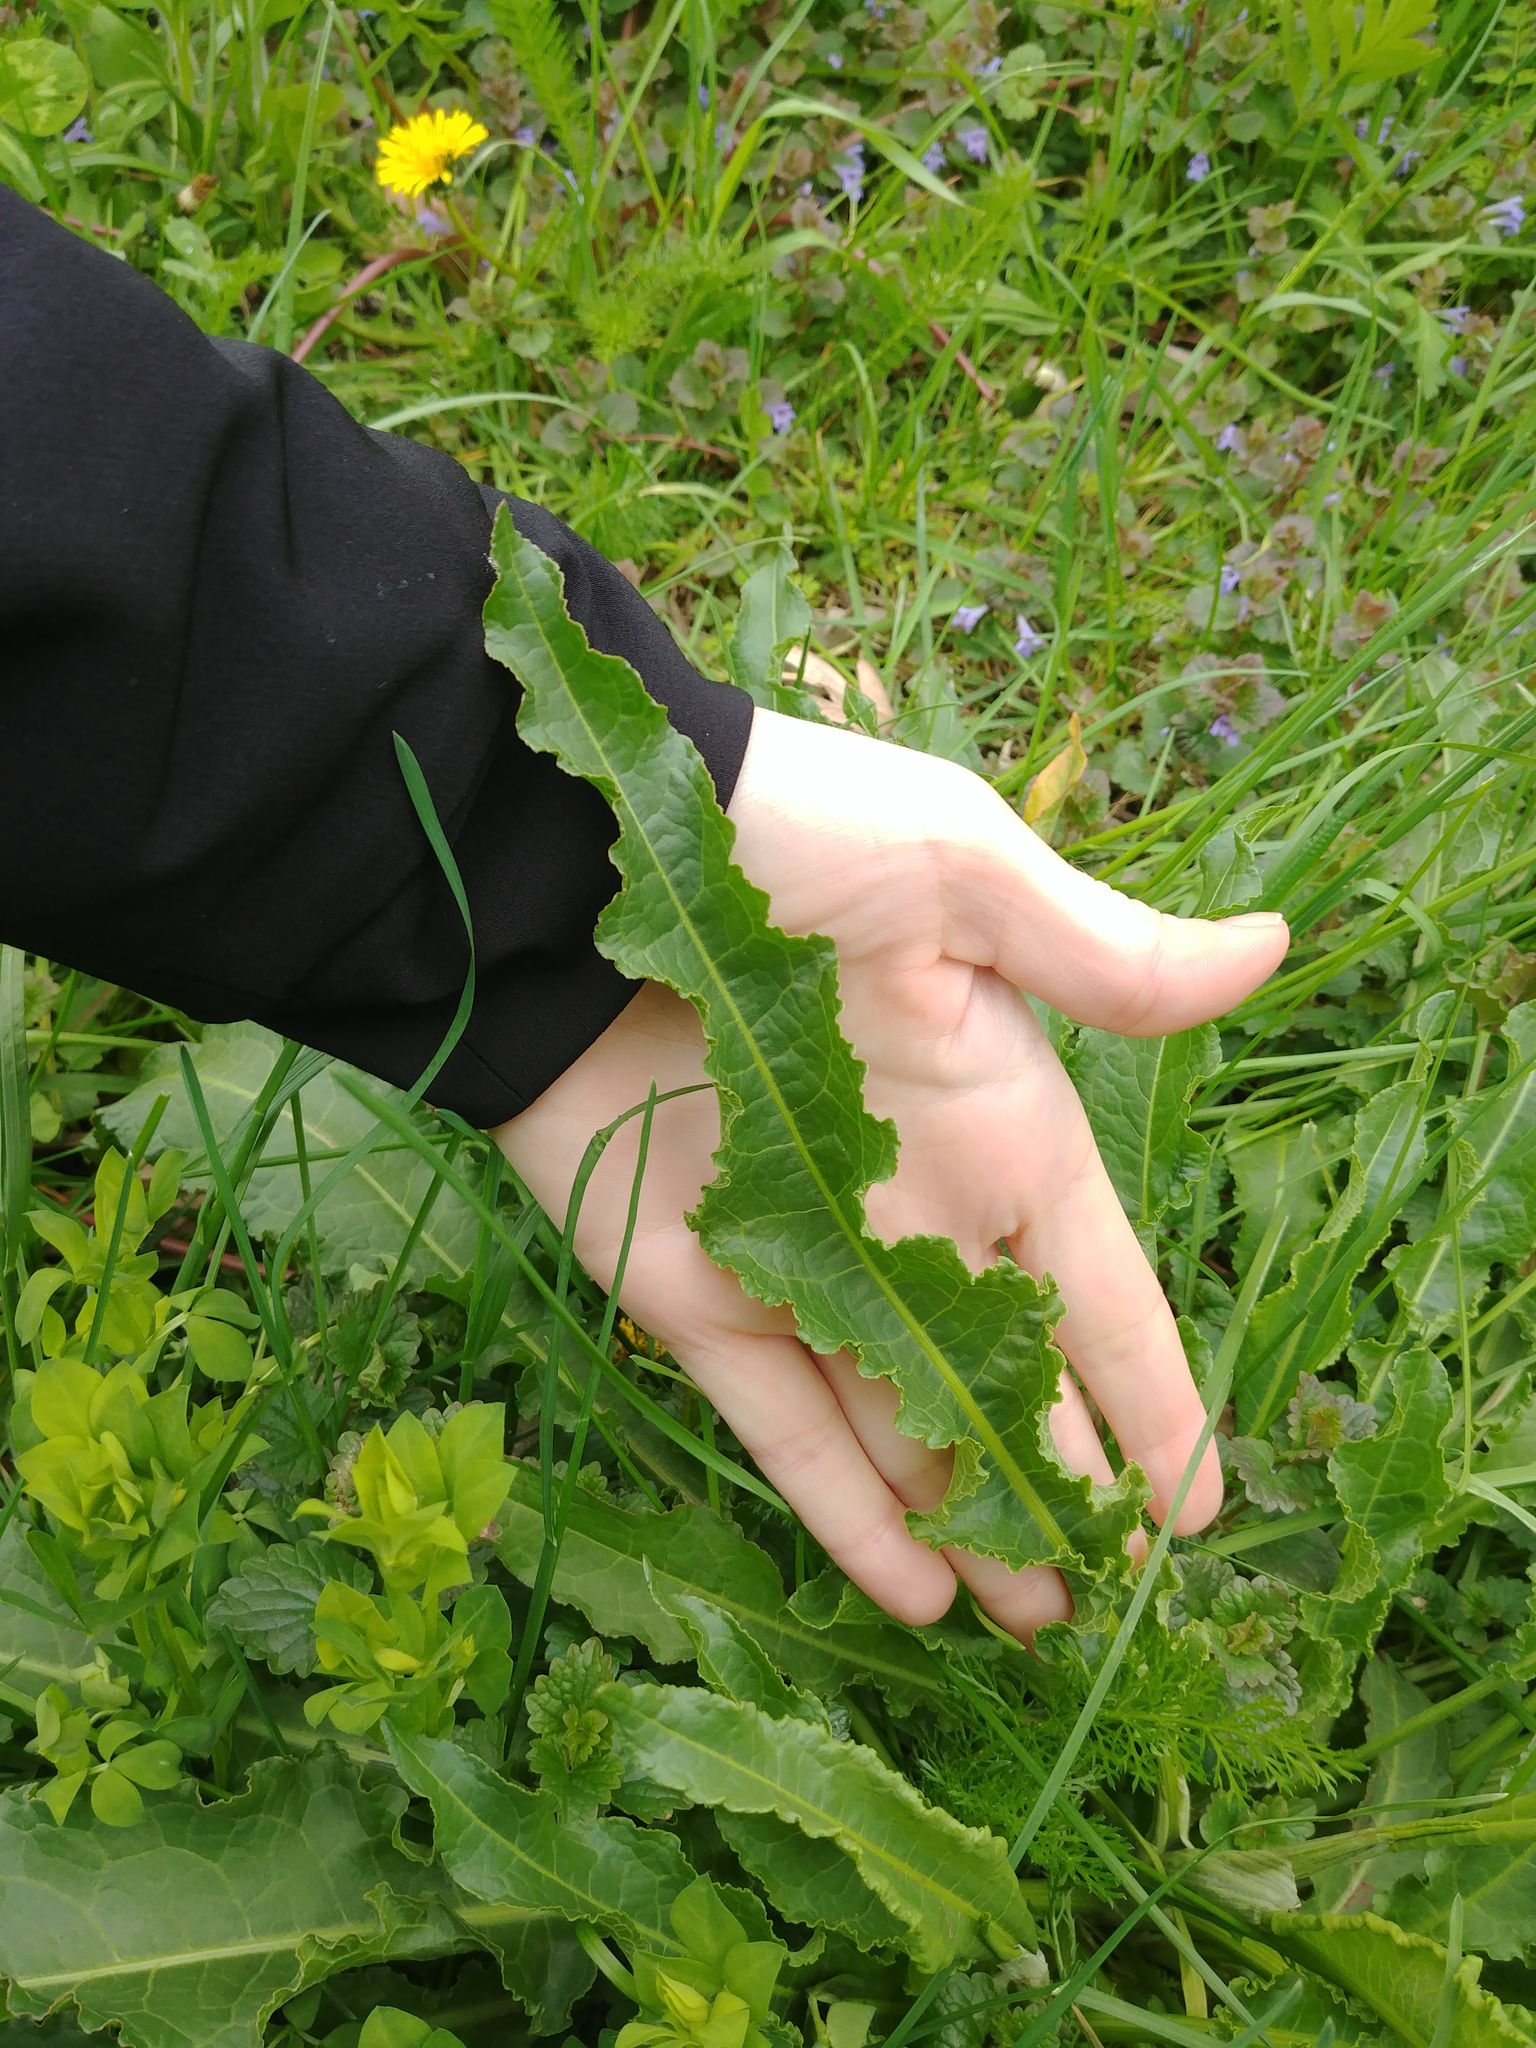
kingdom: Plantae
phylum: Tracheophyta
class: Magnoliopsida
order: Caryophyllales
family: Polygonaceae
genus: Rumex
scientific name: Rumex crispus
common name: Curled dock
